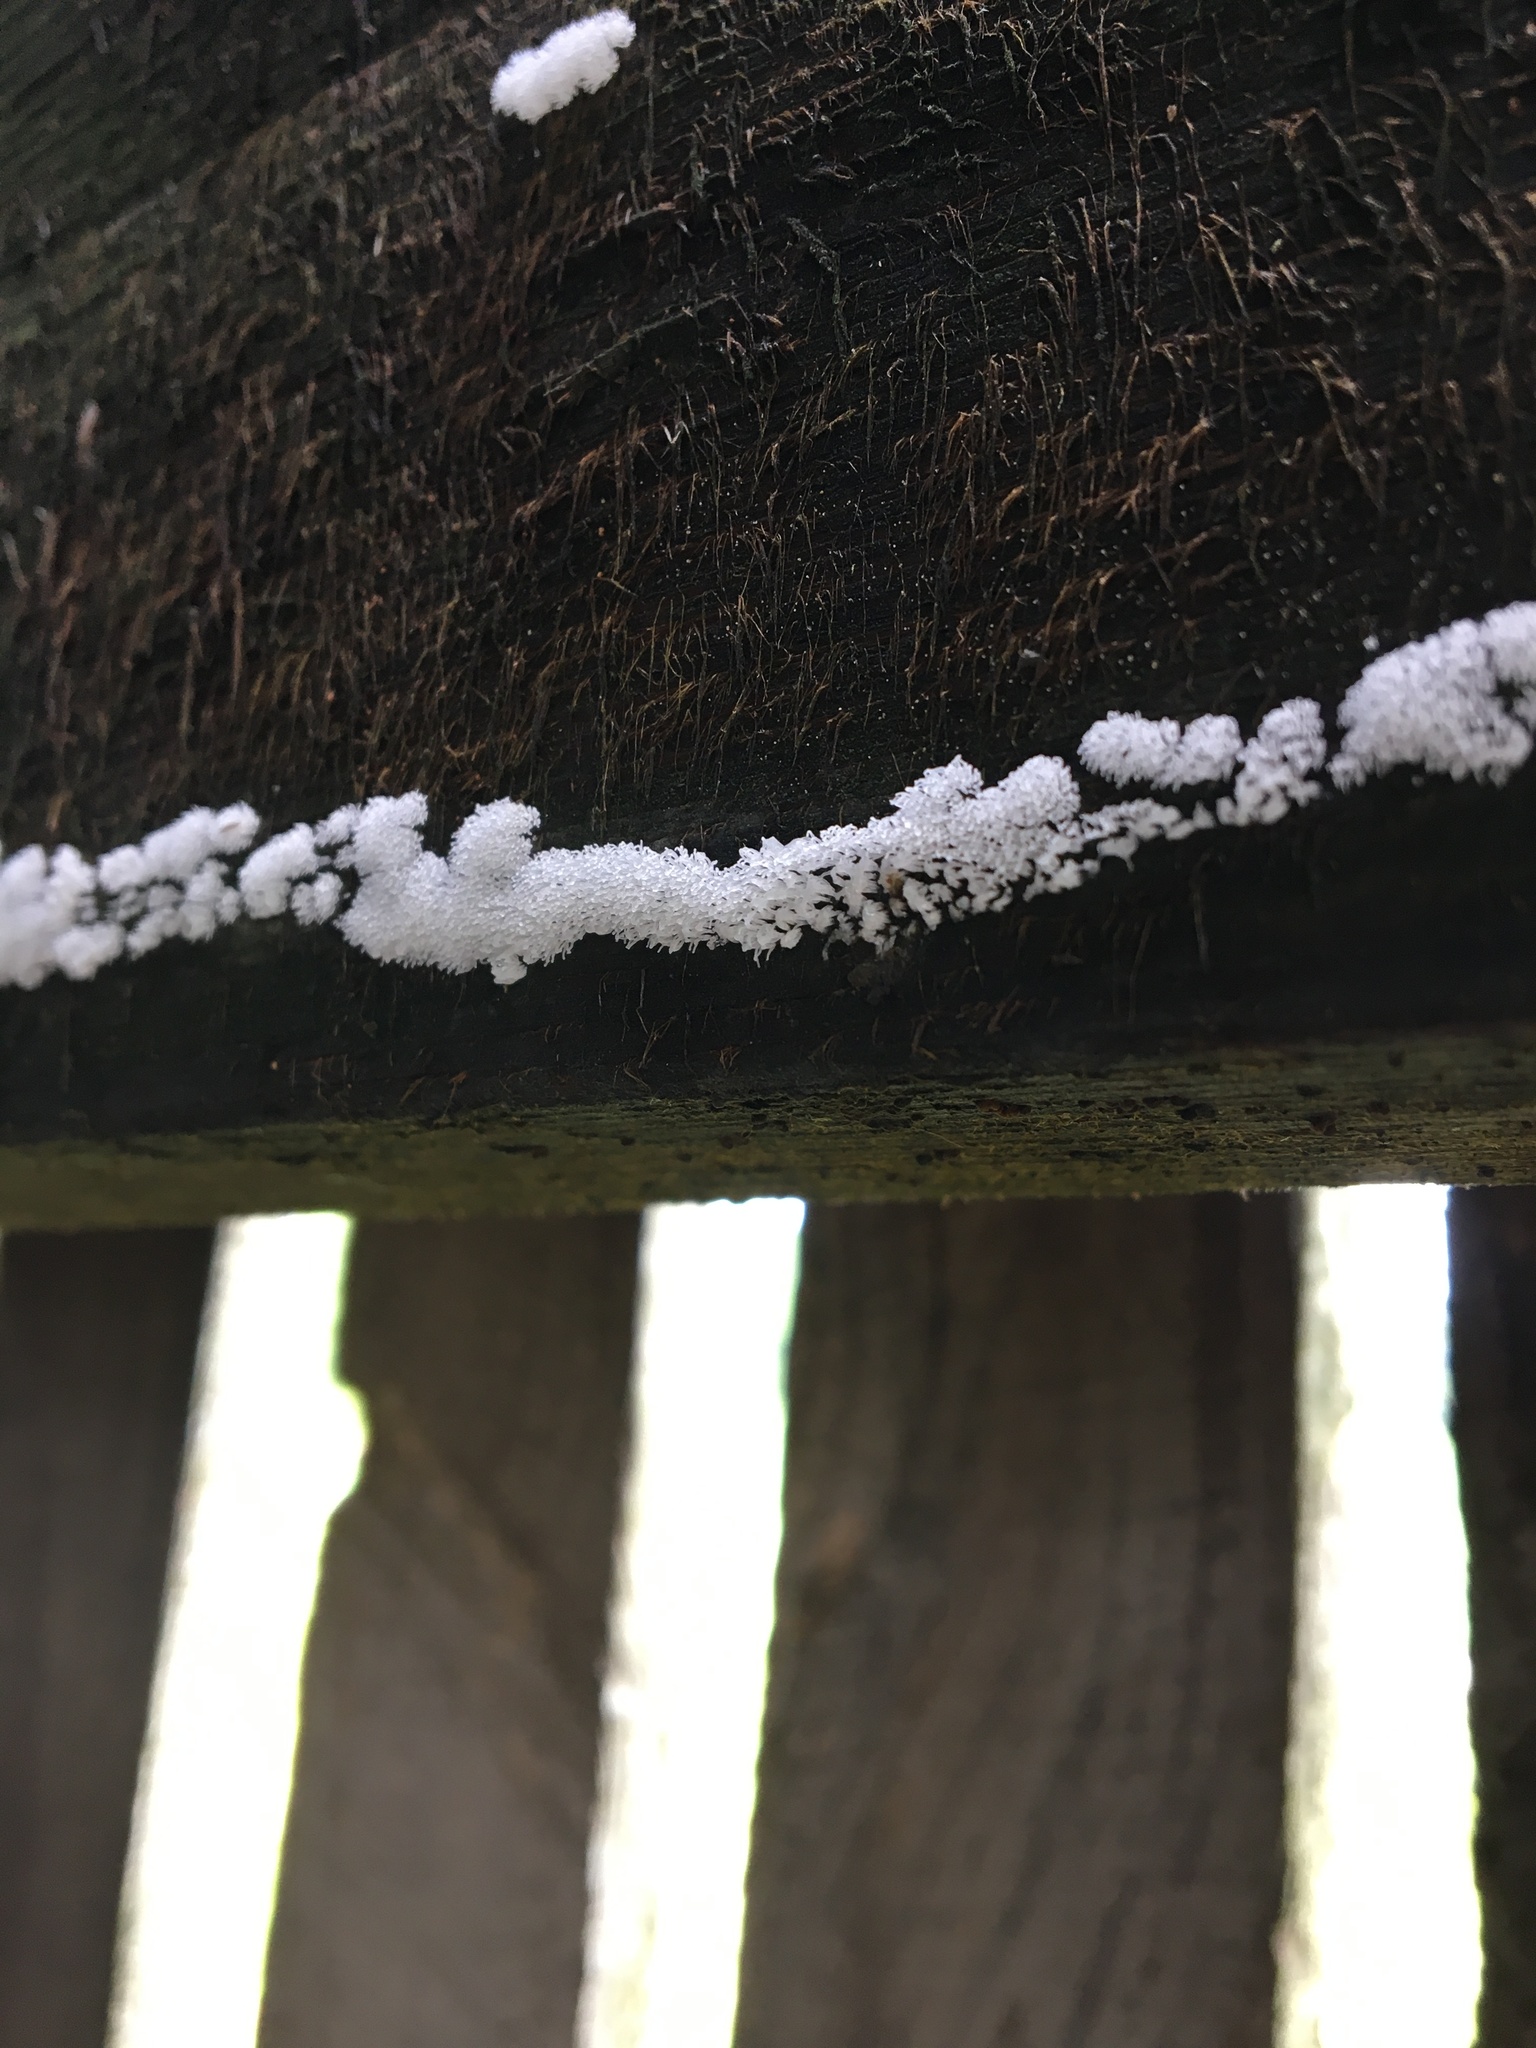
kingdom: Protozoa
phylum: Mycetozoa
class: Protosteliomycetes
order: Ceratiomyxales
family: Ceratiomyxaceae
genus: Ceratiomyxa
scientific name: Ceratiomyxa fruticulosa
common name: Honeycomb coral slime mold
